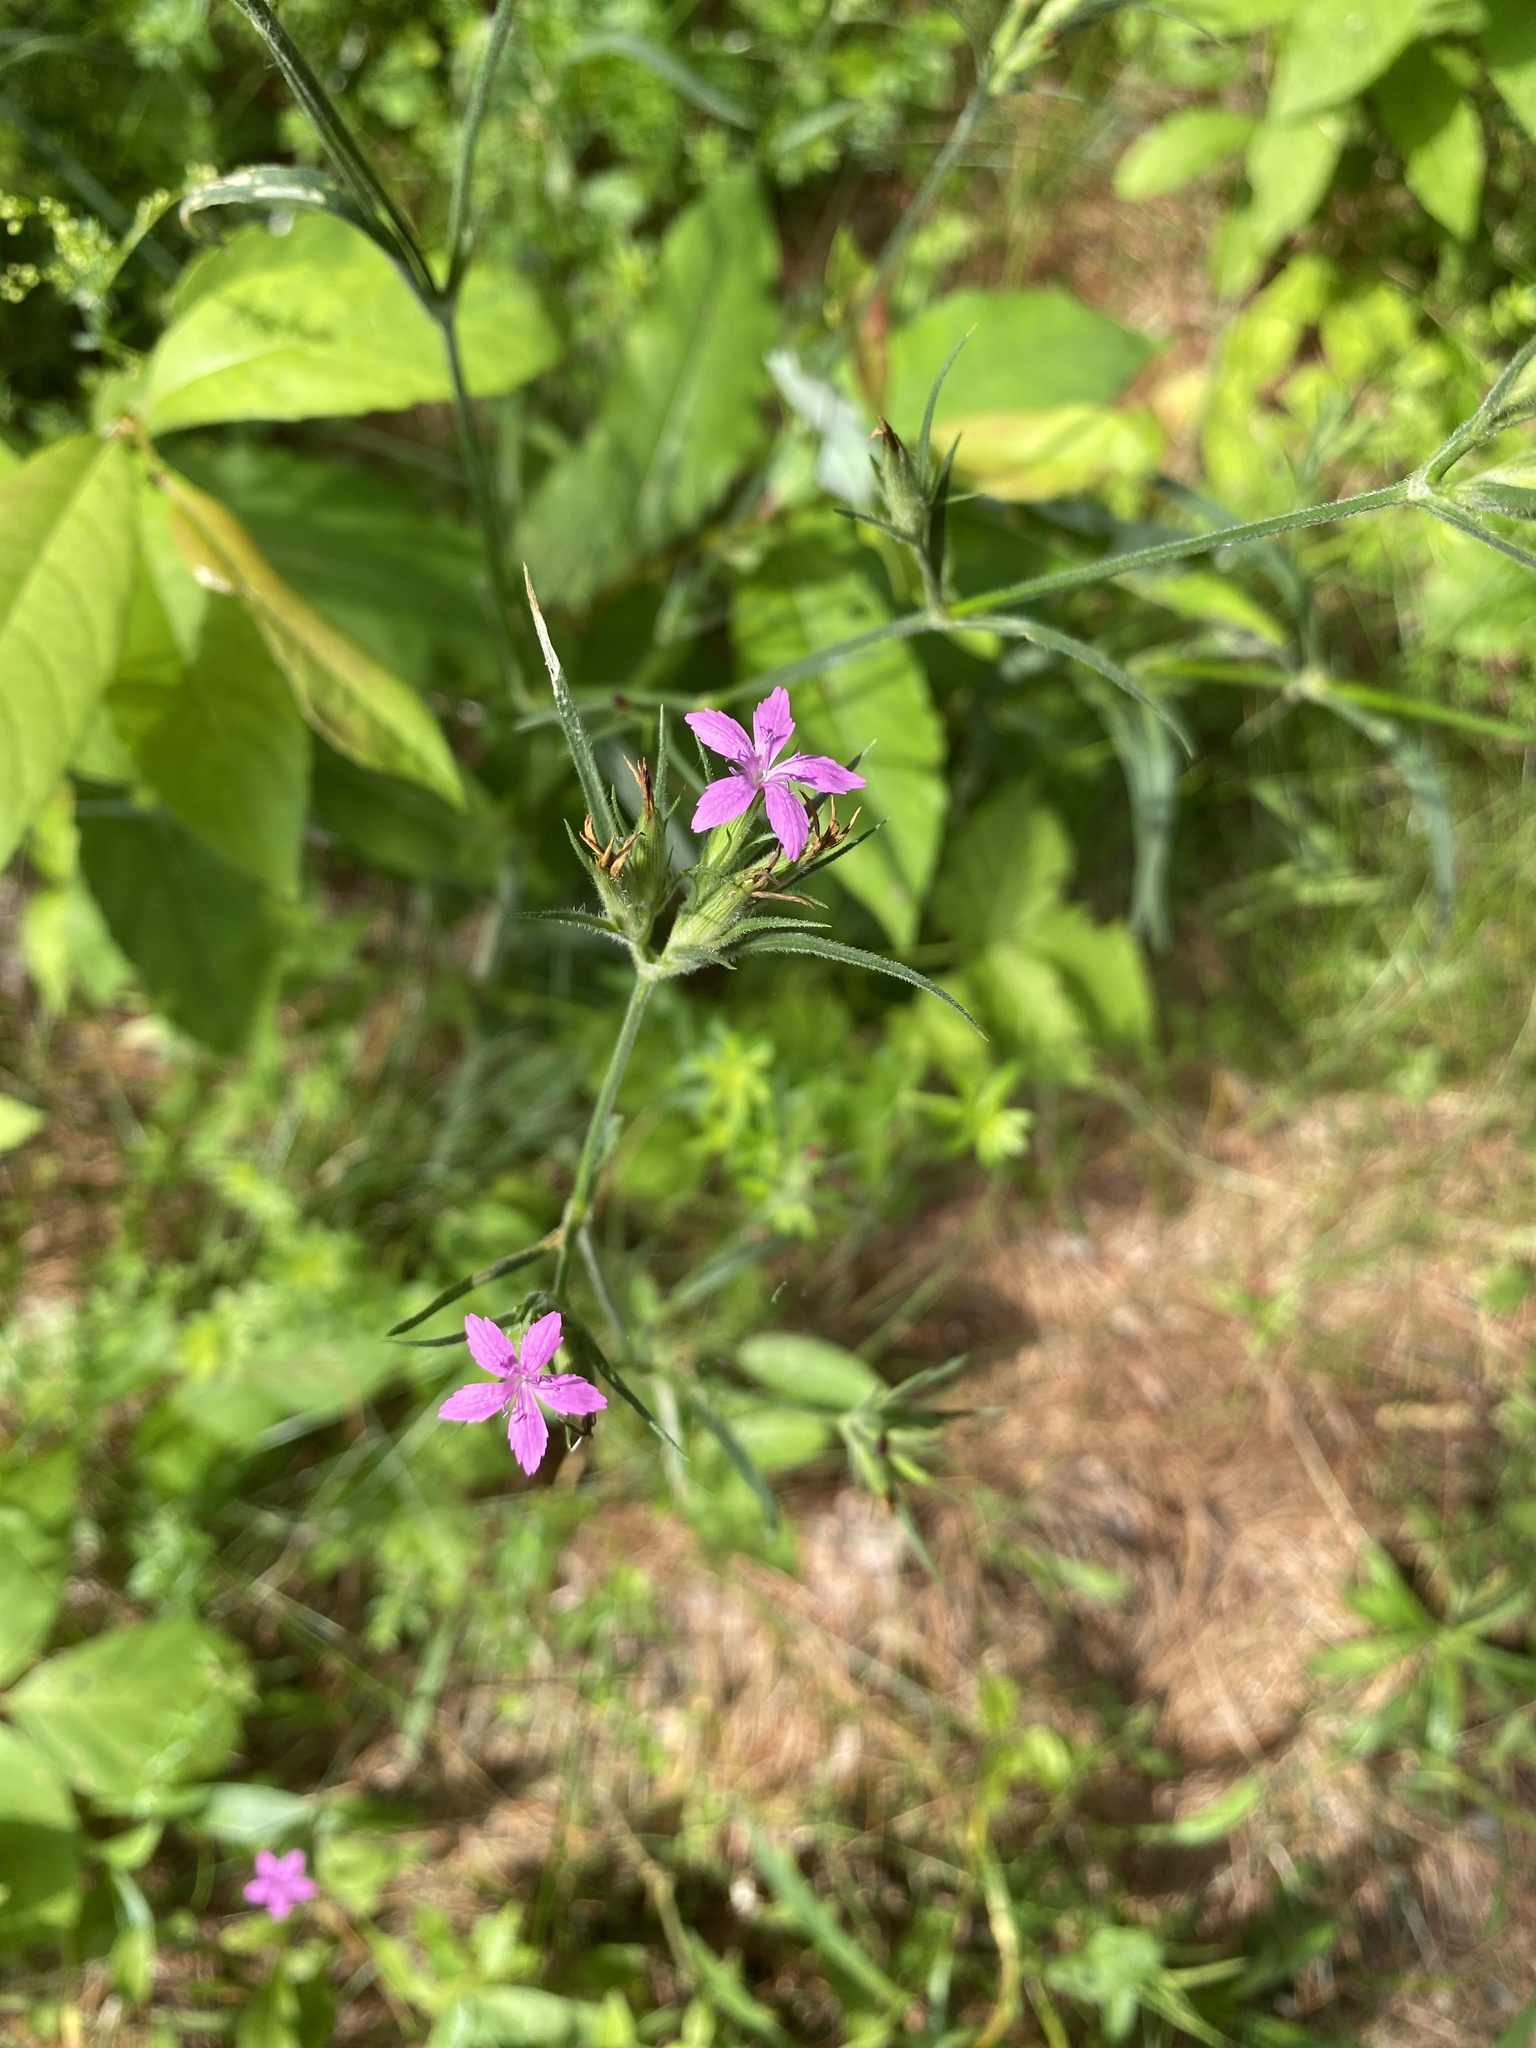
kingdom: Plantae
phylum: Tracheophyta
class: Magnoliopsida
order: Caryophyllales
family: Caryophyllaceae
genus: Dianthus
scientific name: Dianthus armeria
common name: Deptford pink
